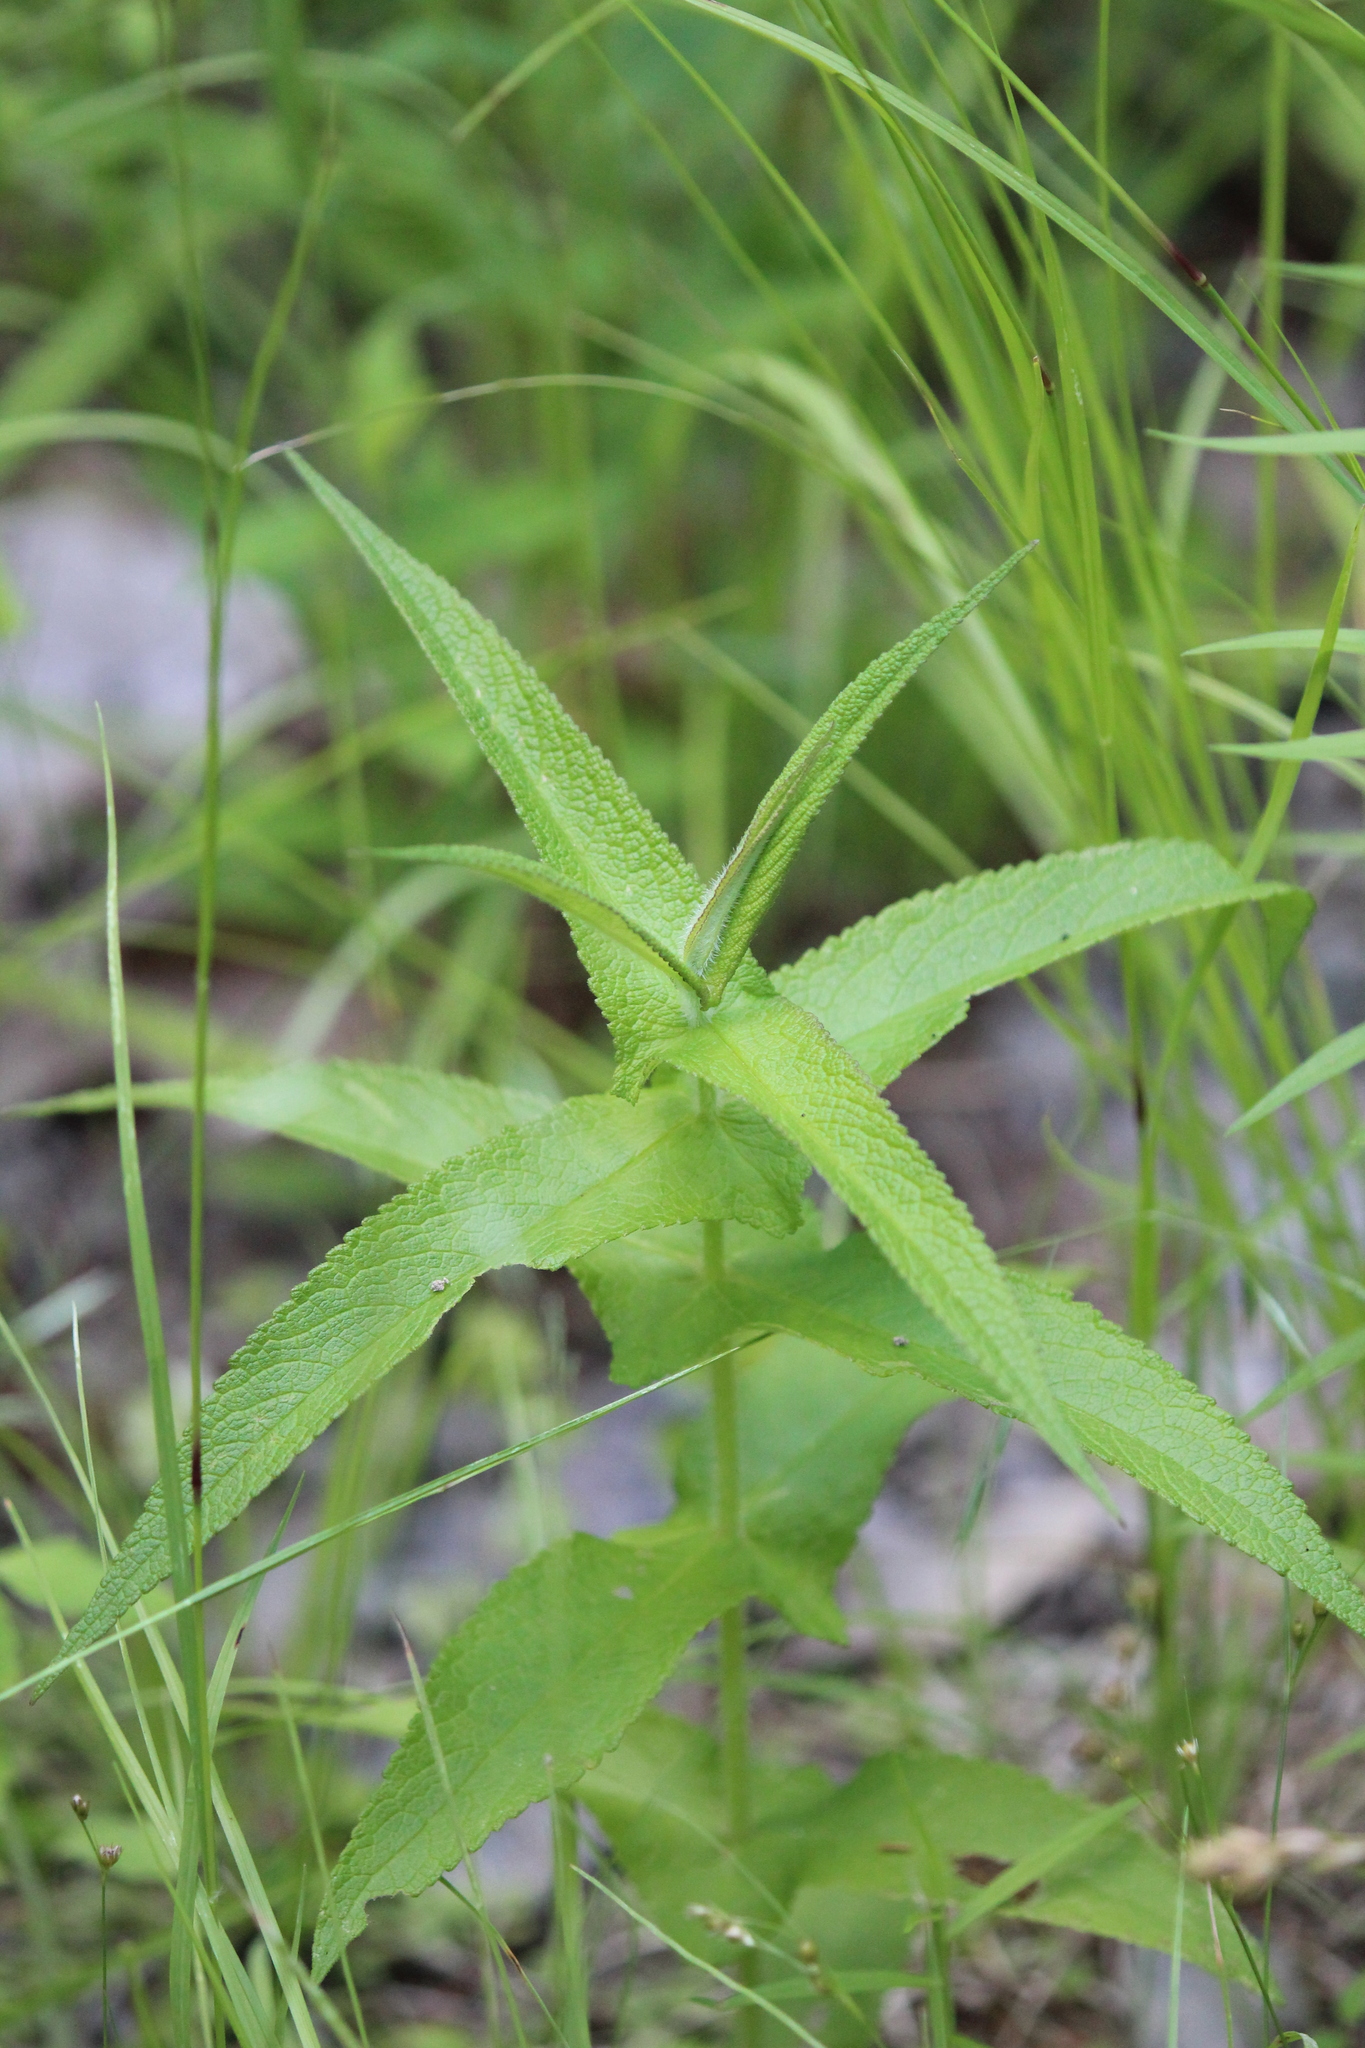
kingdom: Plantae
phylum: Tracheophyta
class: Magnoliopsida
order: Asterales
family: Asteraceae
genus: Eupatorium
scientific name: Eupatorium perfoliatum
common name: Boneset
